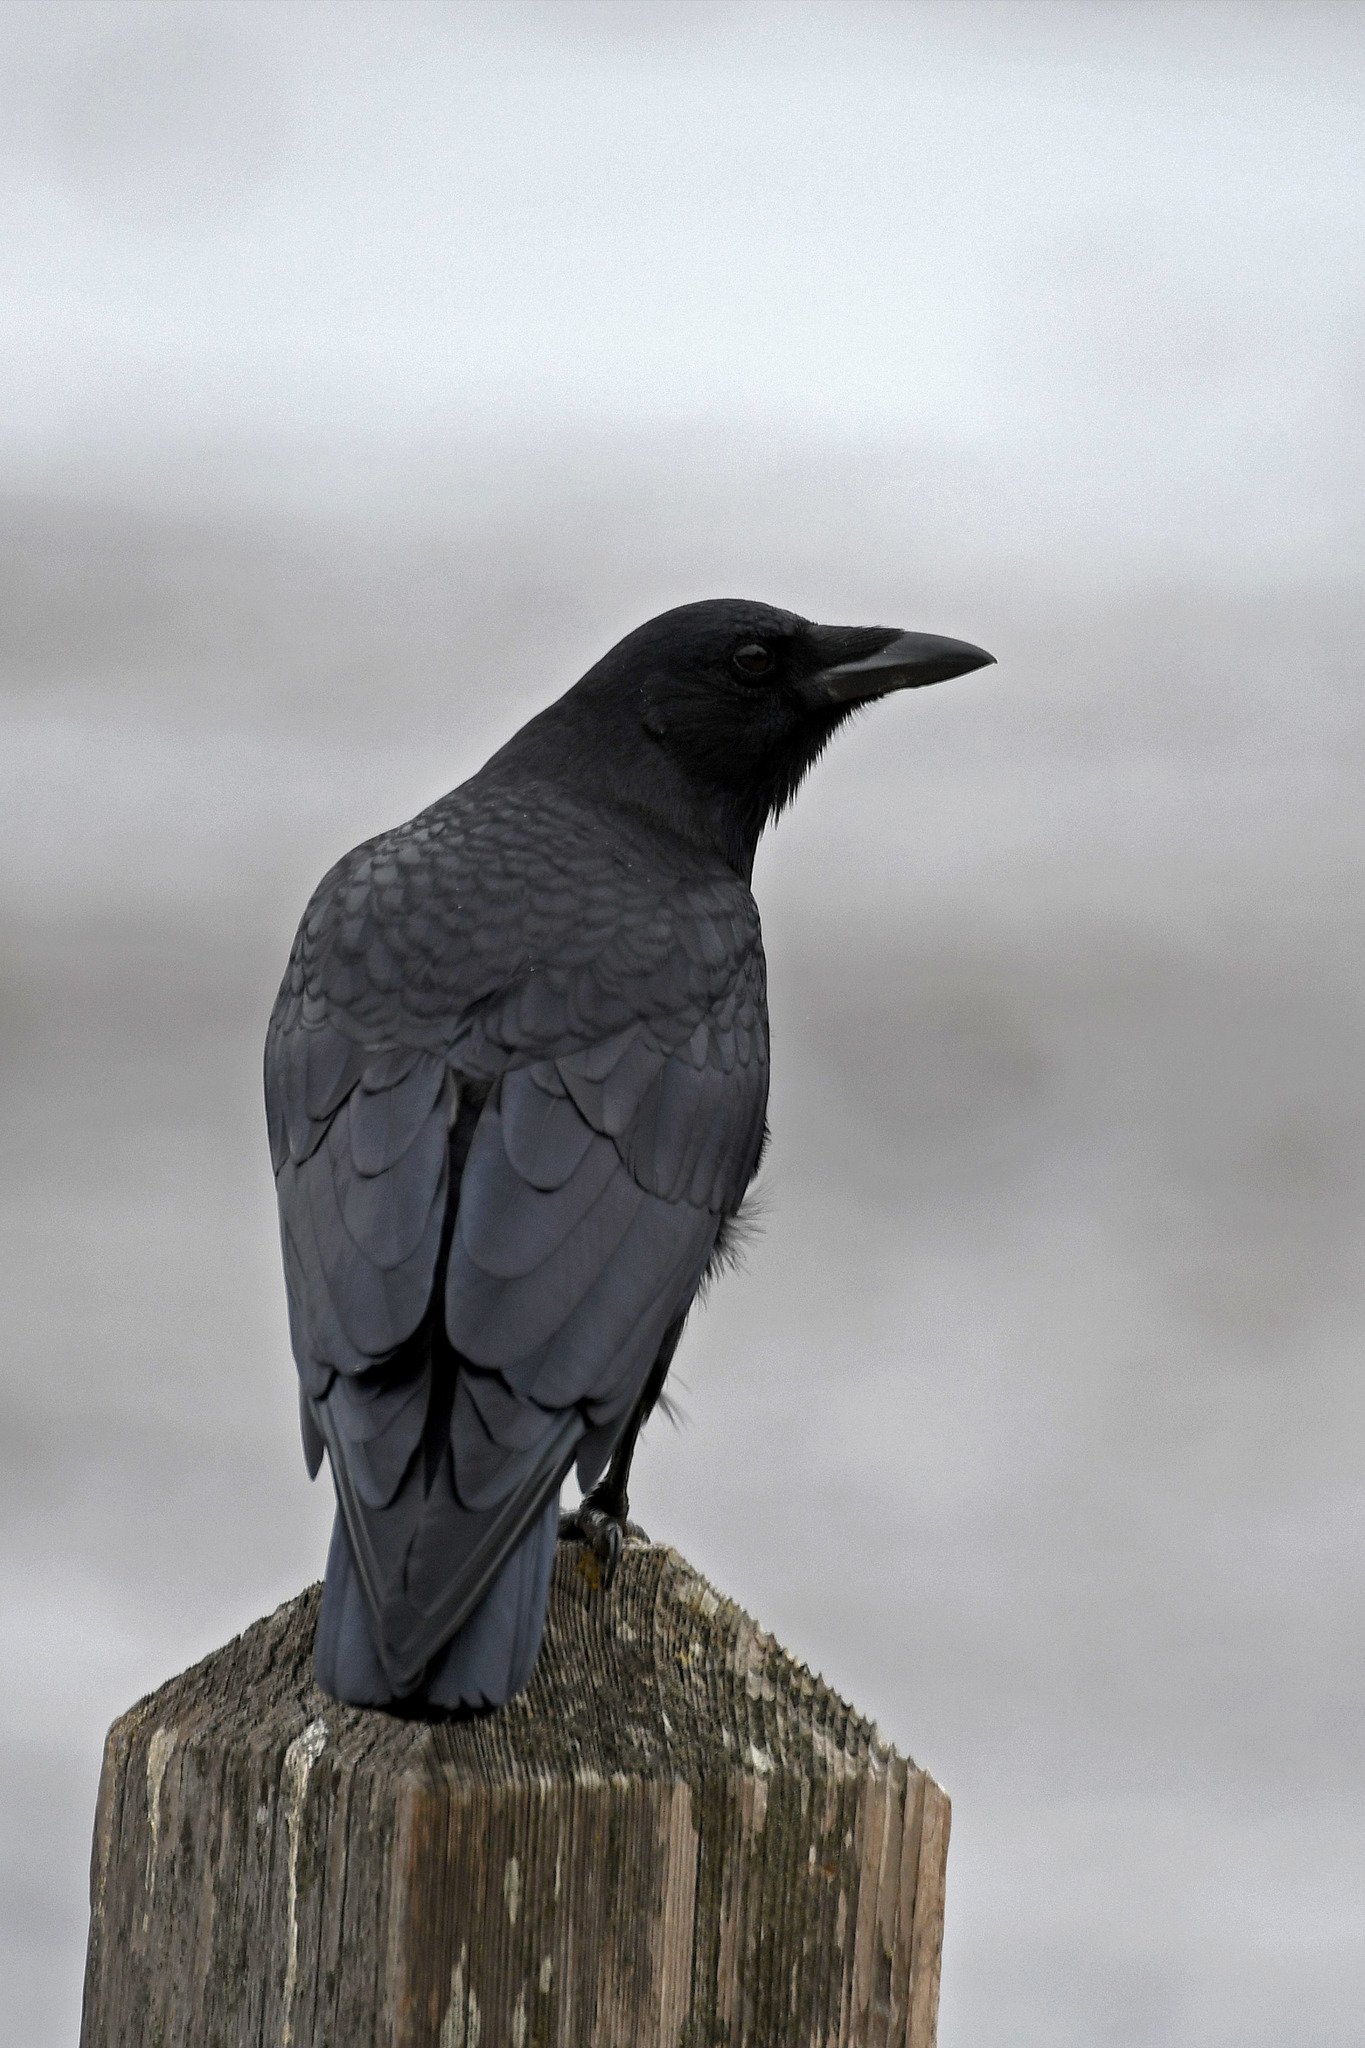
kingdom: Animalia
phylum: Chordata
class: Aves
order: Passeriformes
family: Corvidae
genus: Corvus
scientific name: Corvus brachyrhynchos
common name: American crow
